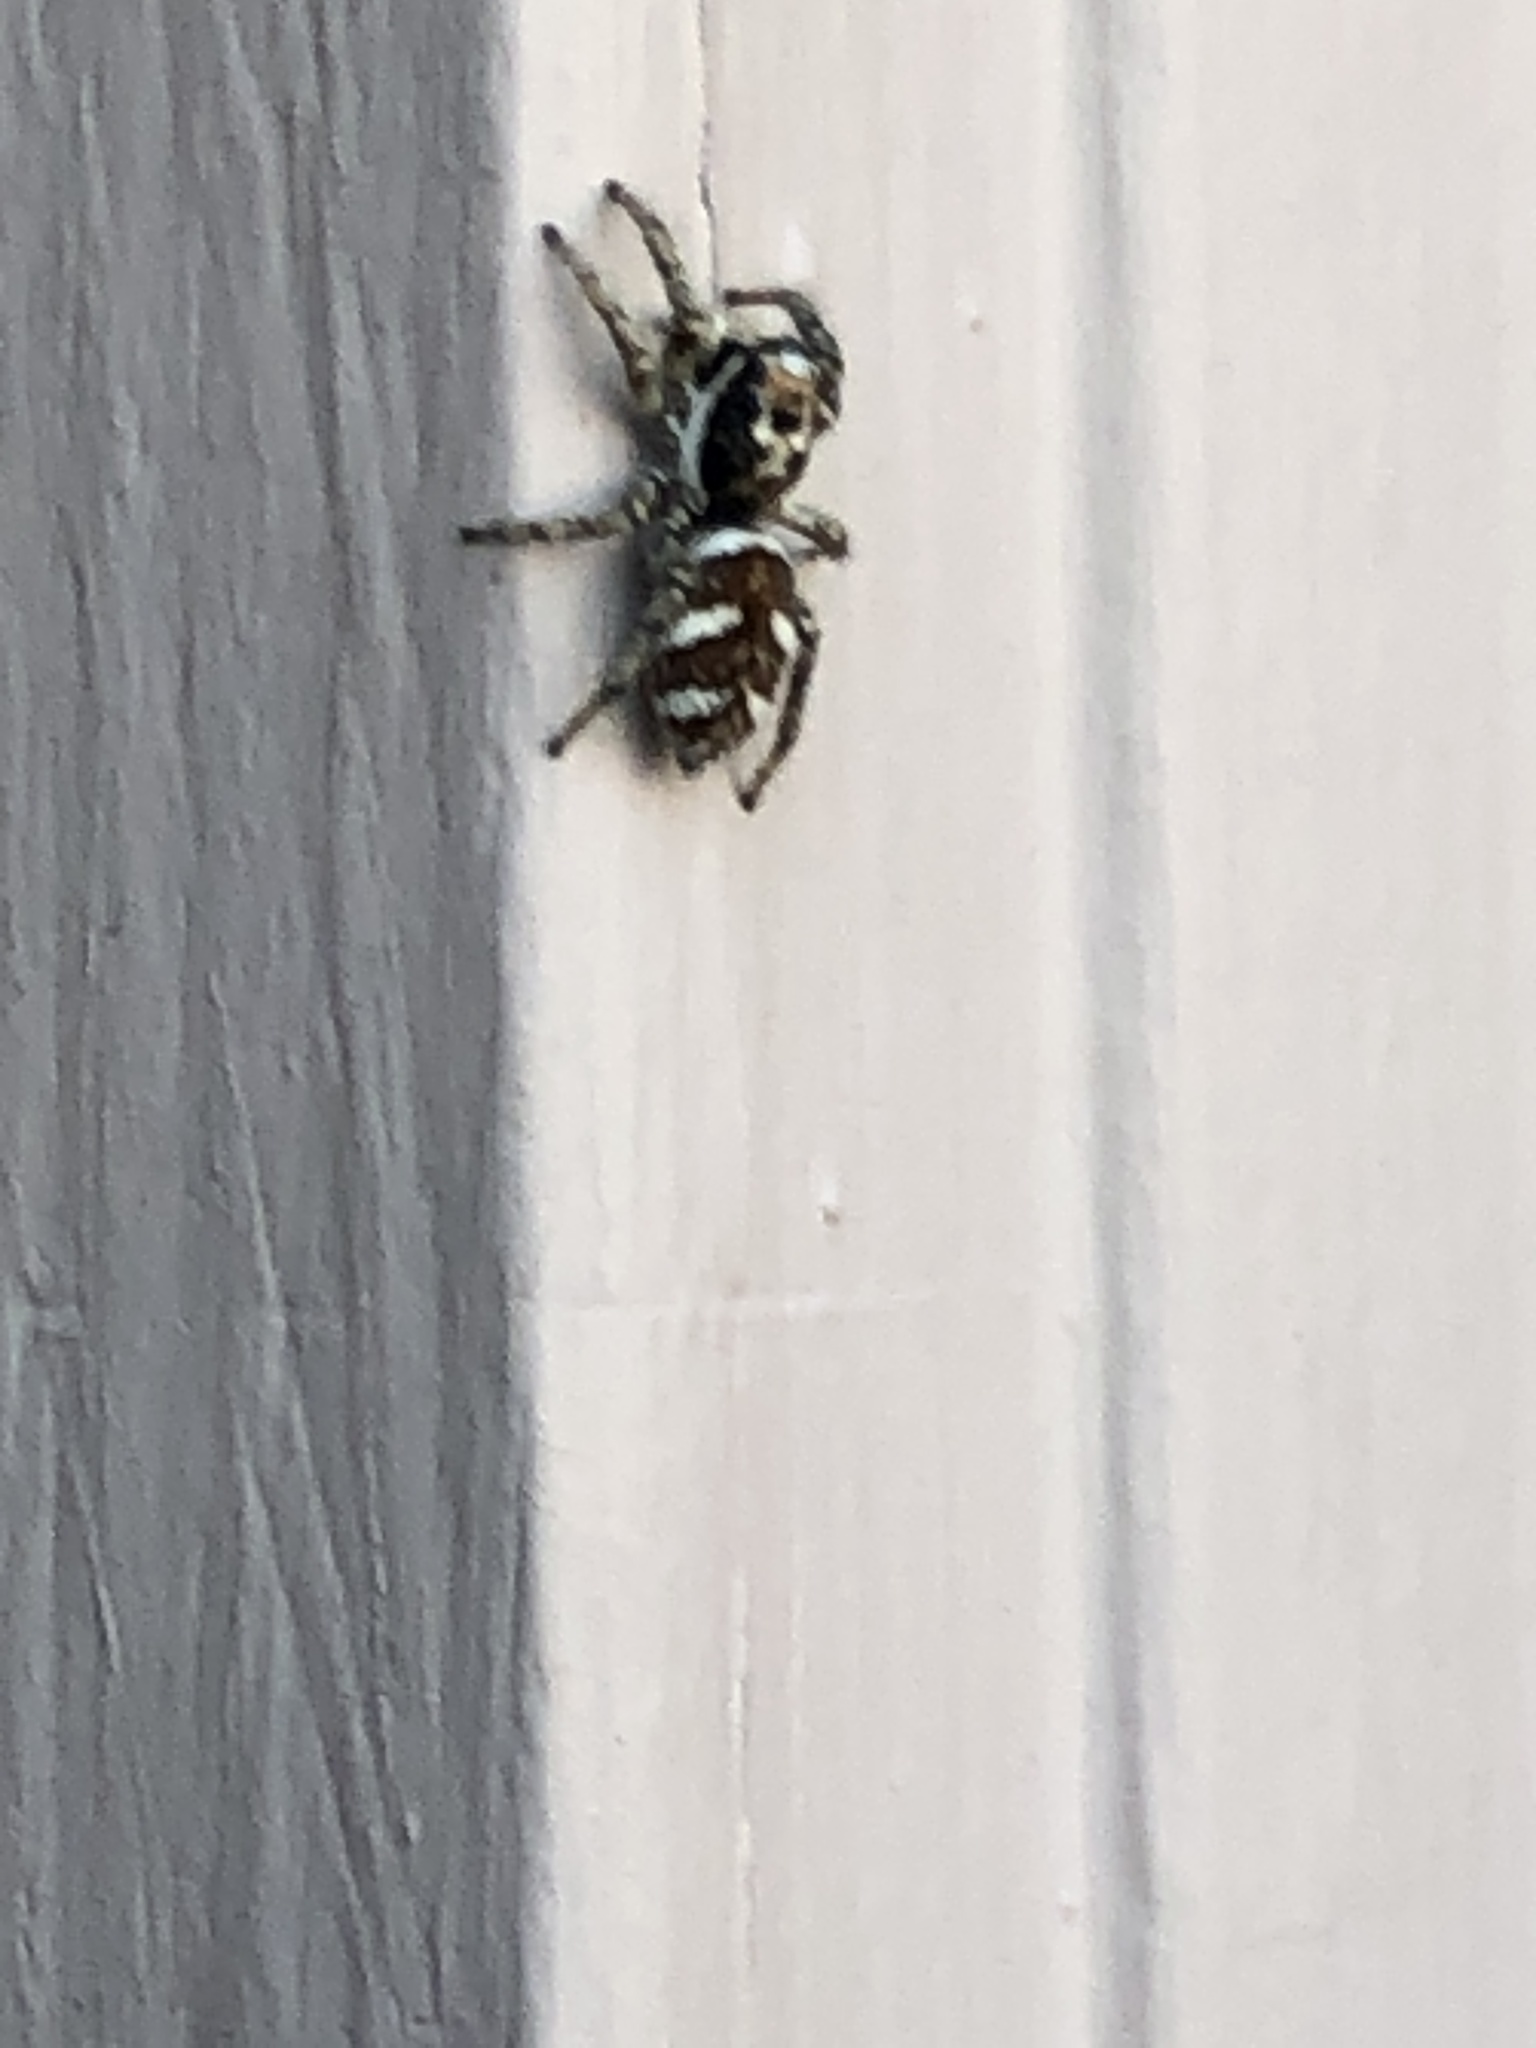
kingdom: Animalia
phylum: Arthropoda
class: Arachnida
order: Araneae
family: Salticidae
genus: Salticus
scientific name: Salticus scenicus
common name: Zebra jumper
